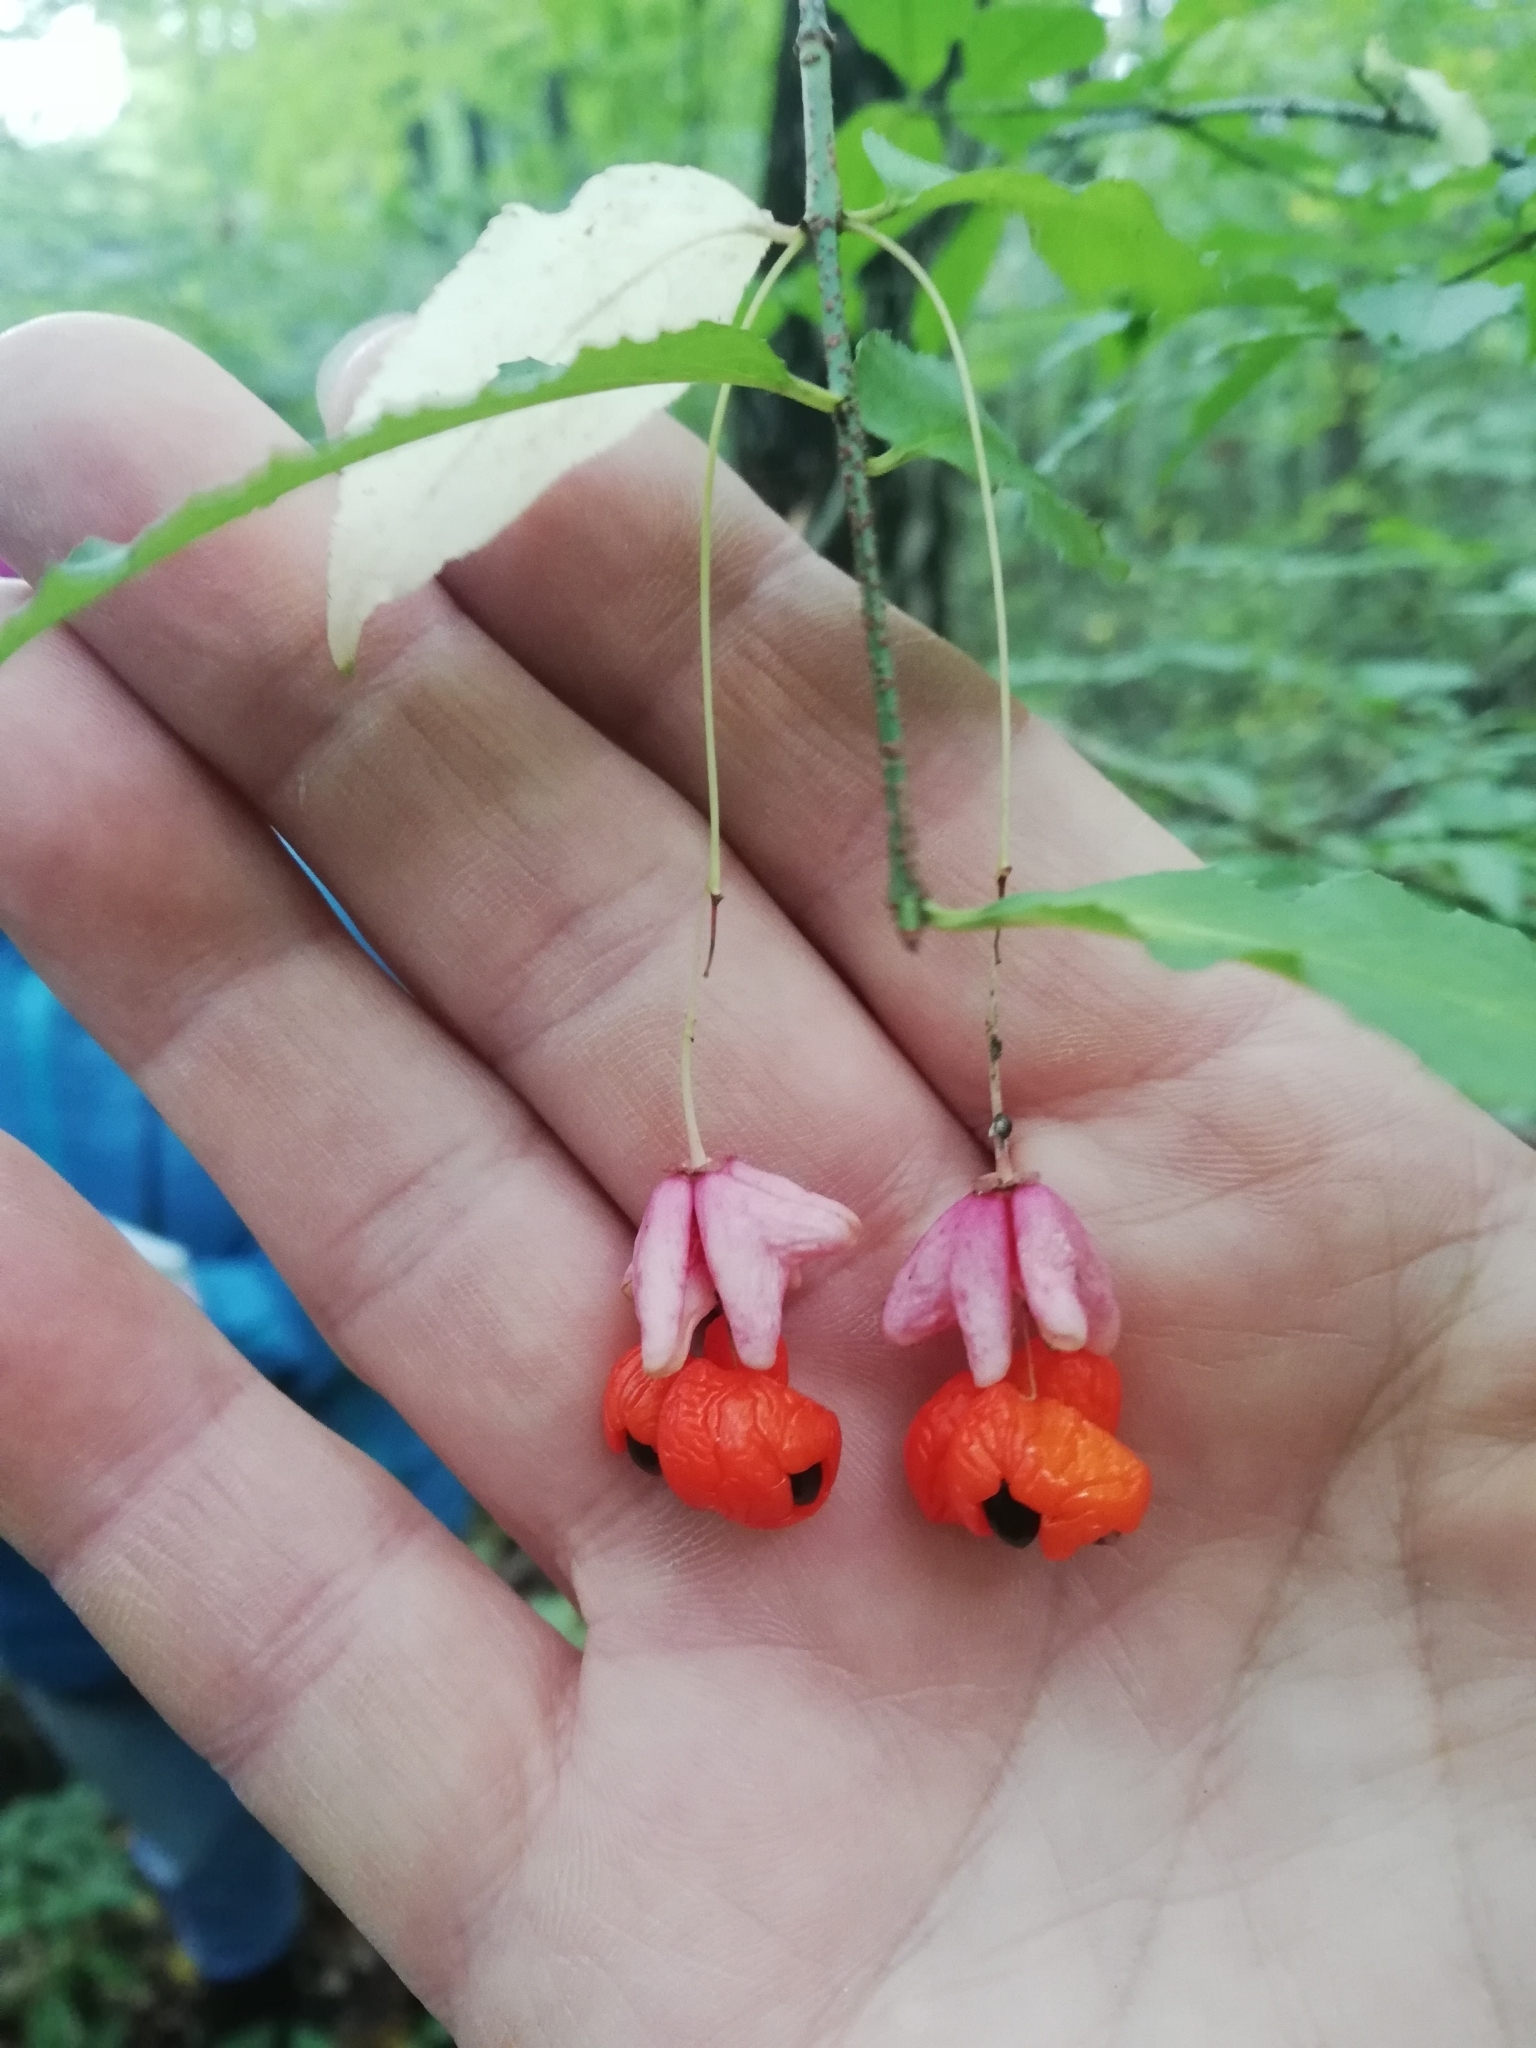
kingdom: Plantae
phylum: Tracheophyta
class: Magnoliopsida
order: Celastrales
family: Celastraceae
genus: Euonymus
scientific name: Euonymus verrucosus
